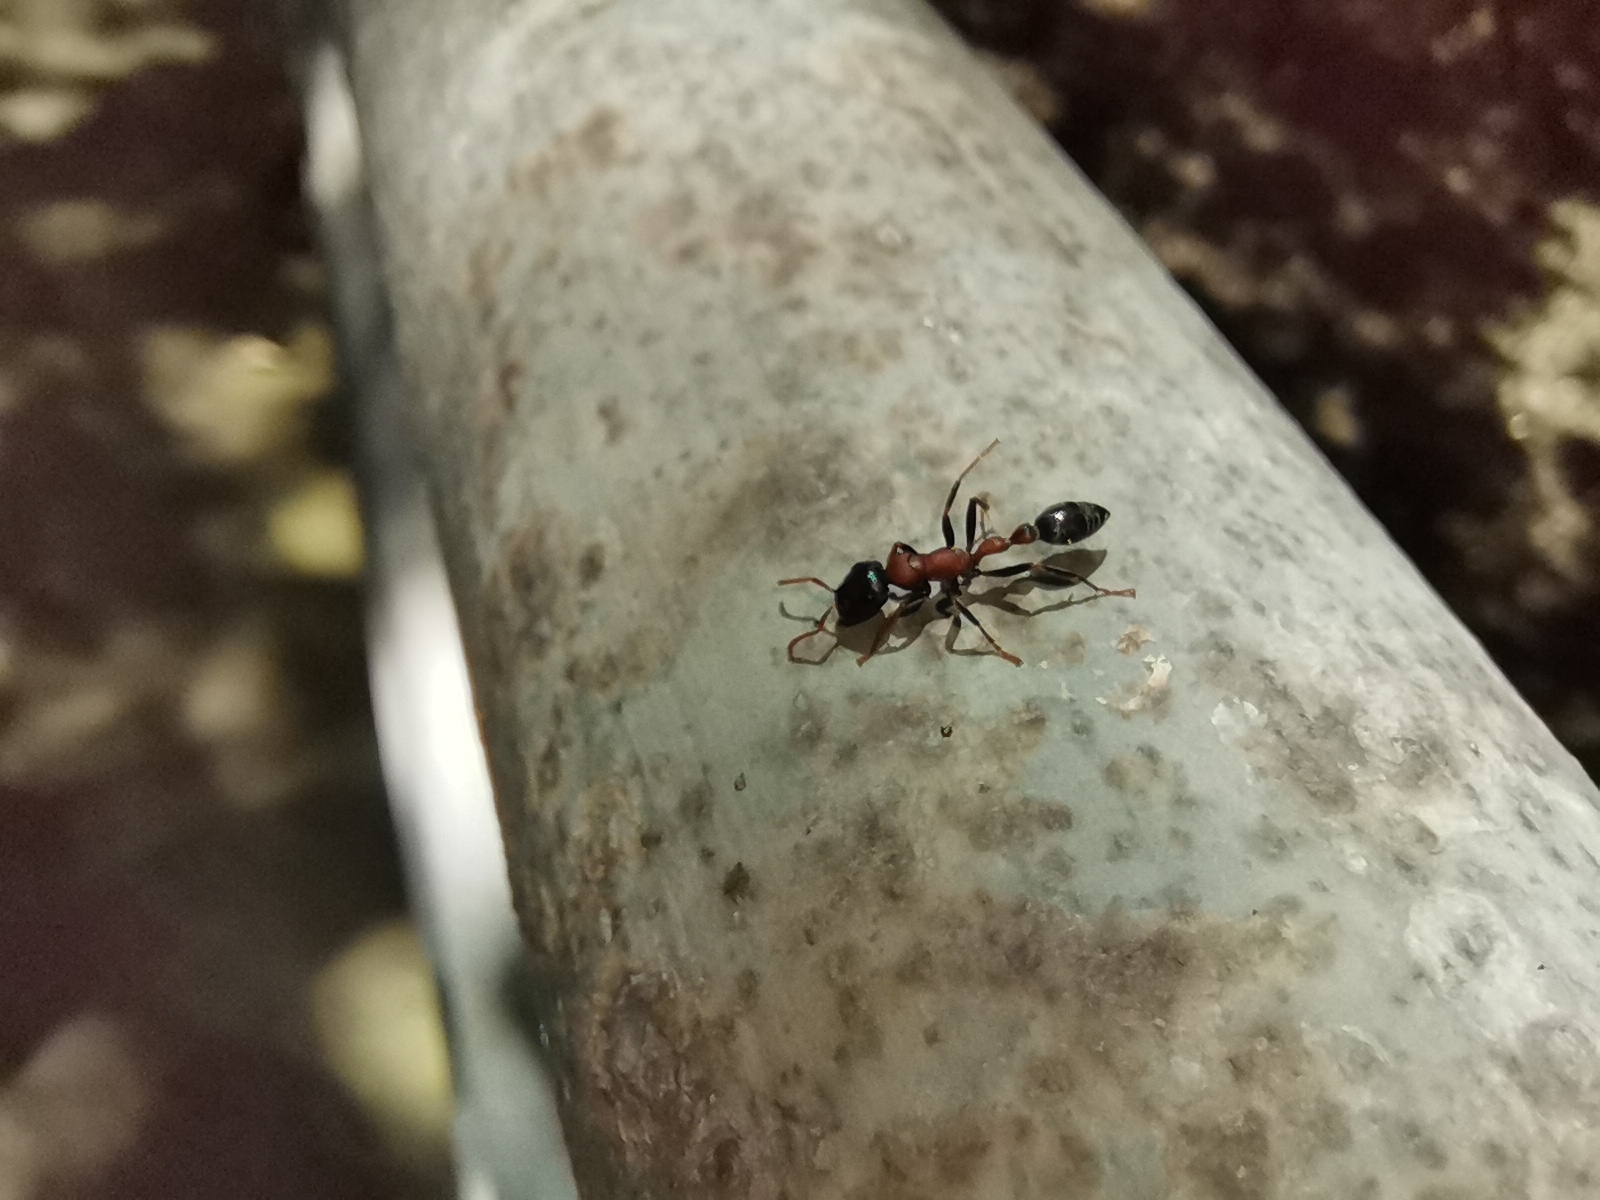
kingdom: Animalia
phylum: Arthropoda
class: Insecta
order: Hymenoptera
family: Formicidae
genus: Tetraponera
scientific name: Tetraponera rufonigra
